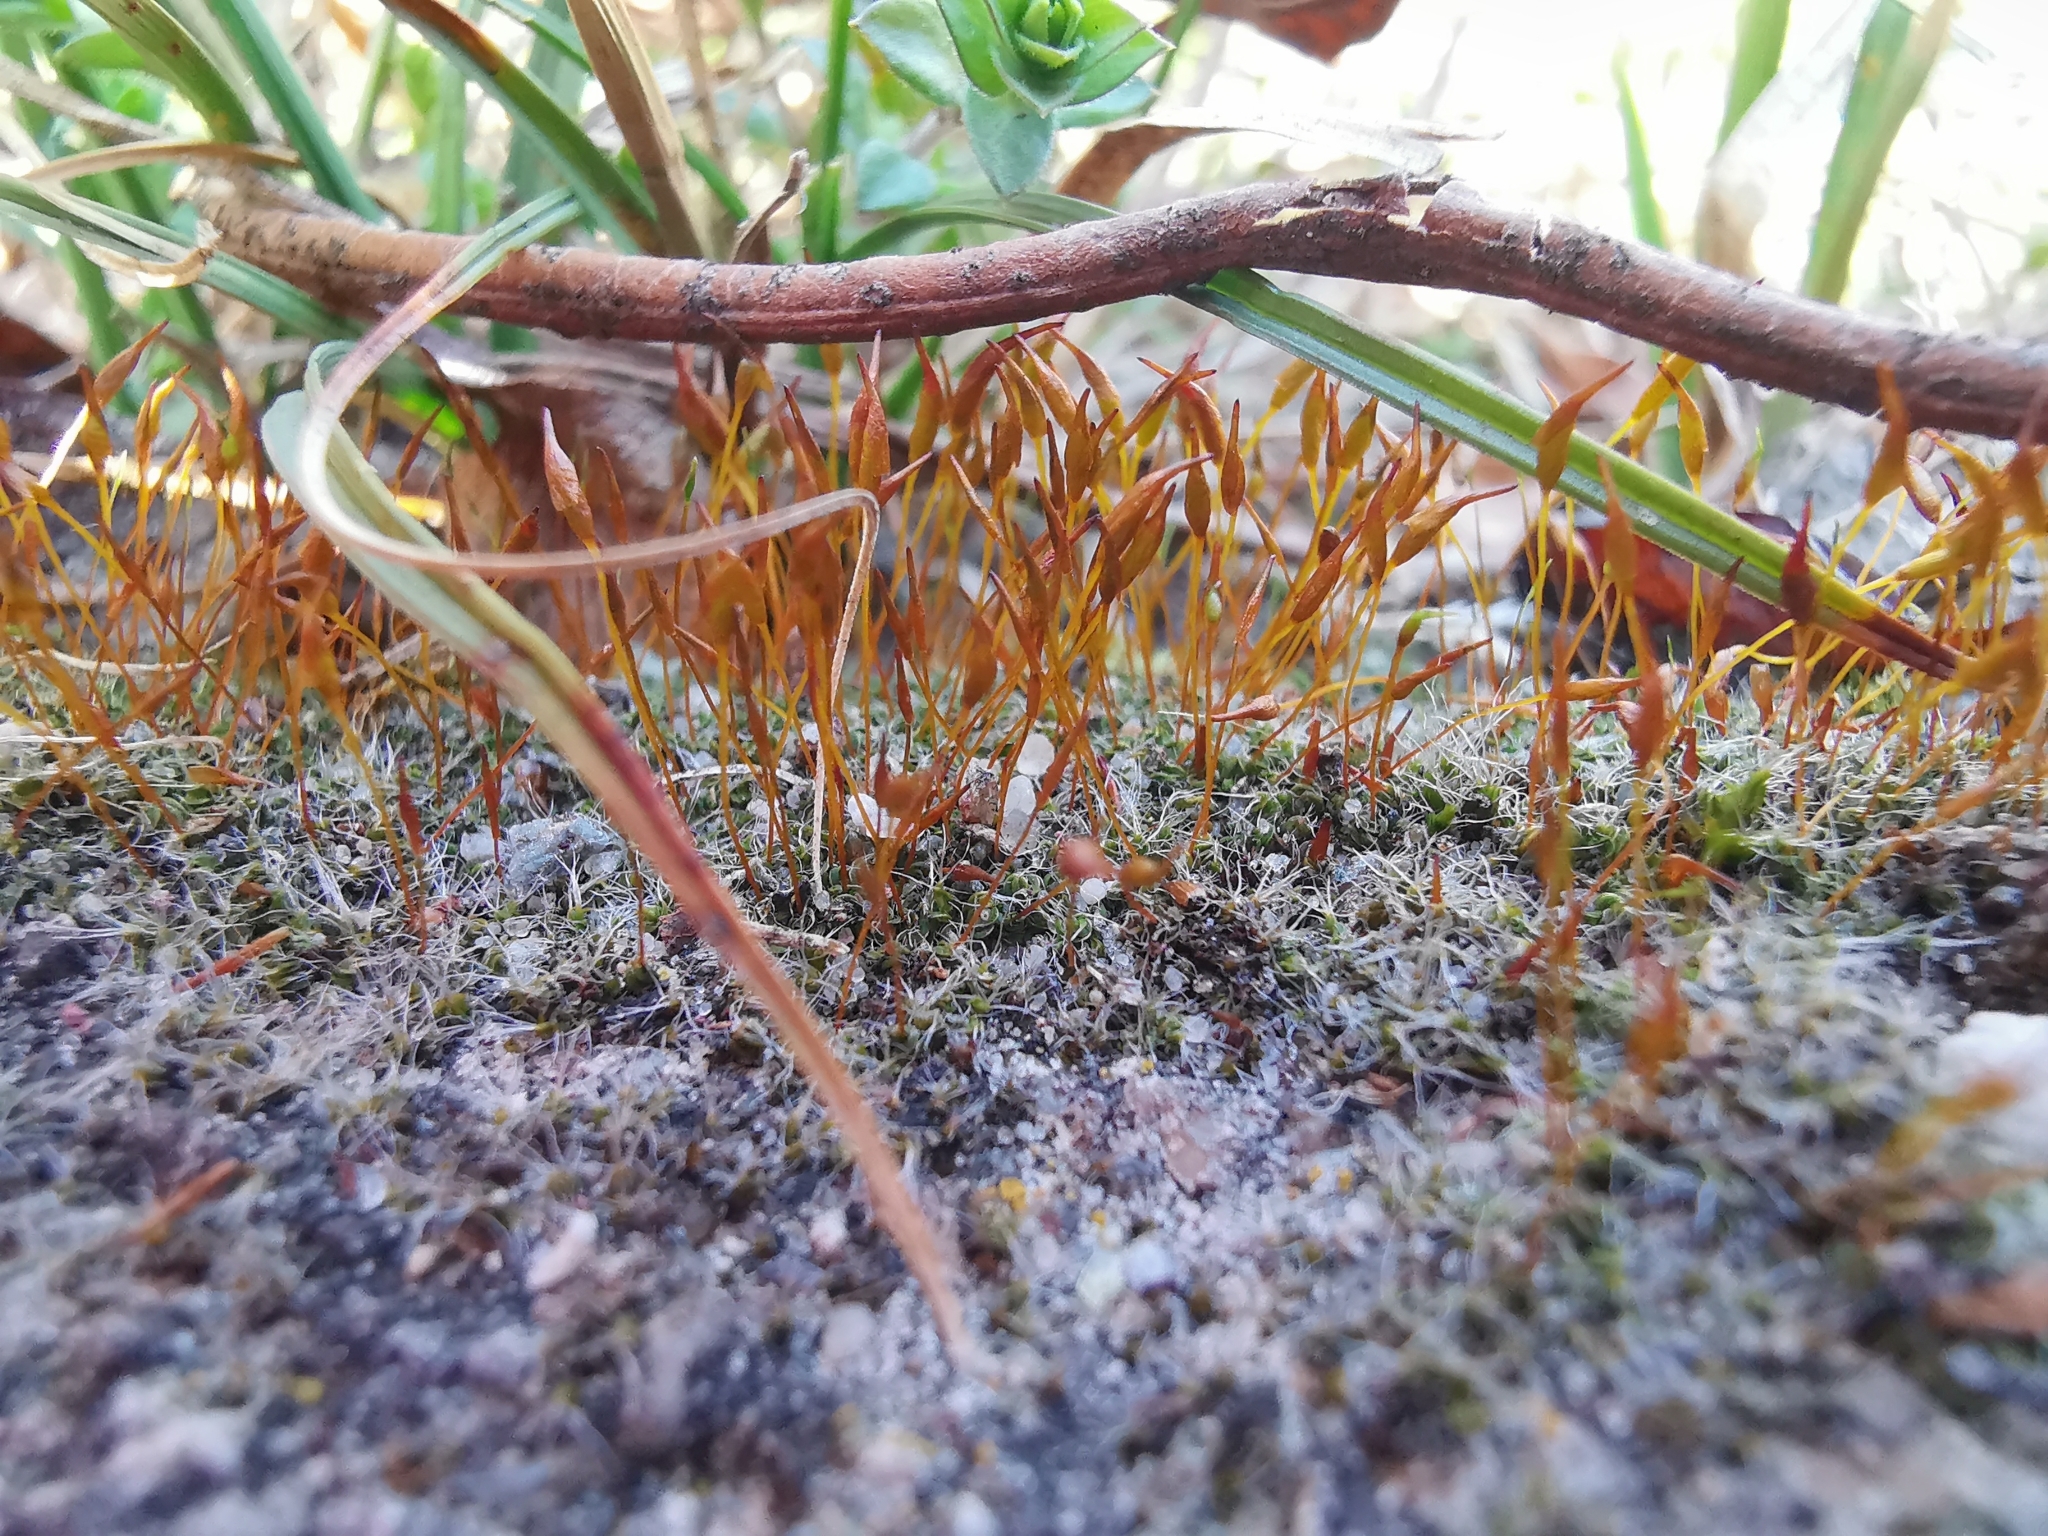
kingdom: Plantae
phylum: Bryophyta
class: Bryopsida
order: Pottiales
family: Pottiaceae
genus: Tortula
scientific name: Tortula muralis
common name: Wall screw-moss
